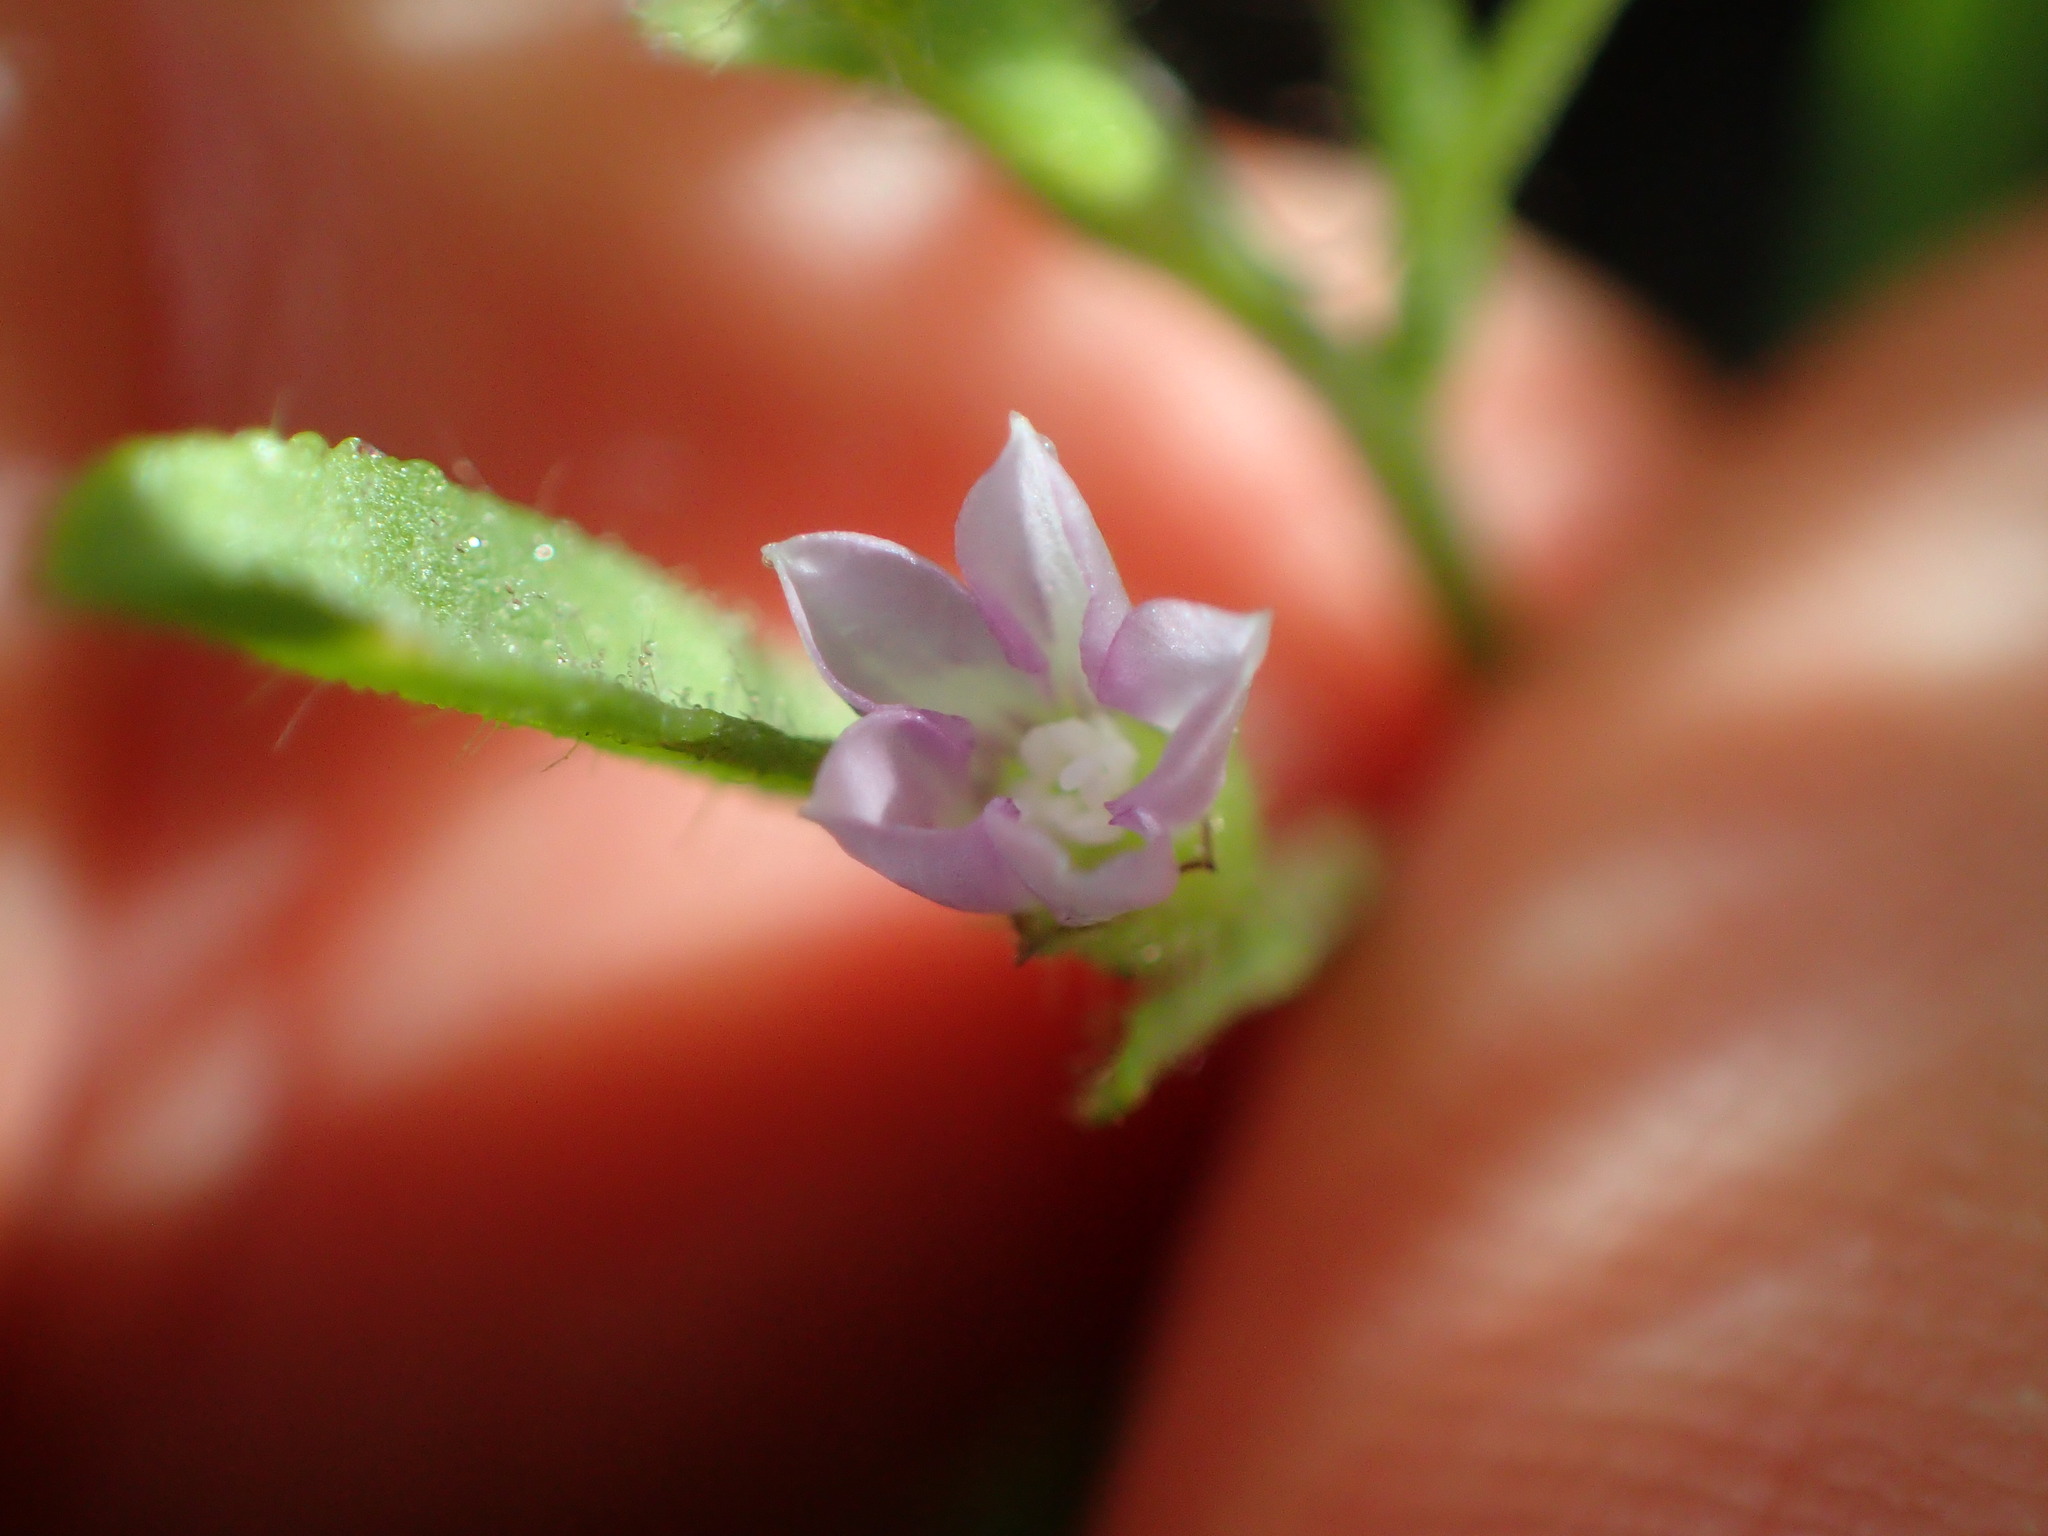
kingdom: Plantae
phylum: Tracheophyta
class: Magnoliopsida
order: Solanales
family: Convolvulaceae
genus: Convolvulus
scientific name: Convolvulus simulans
